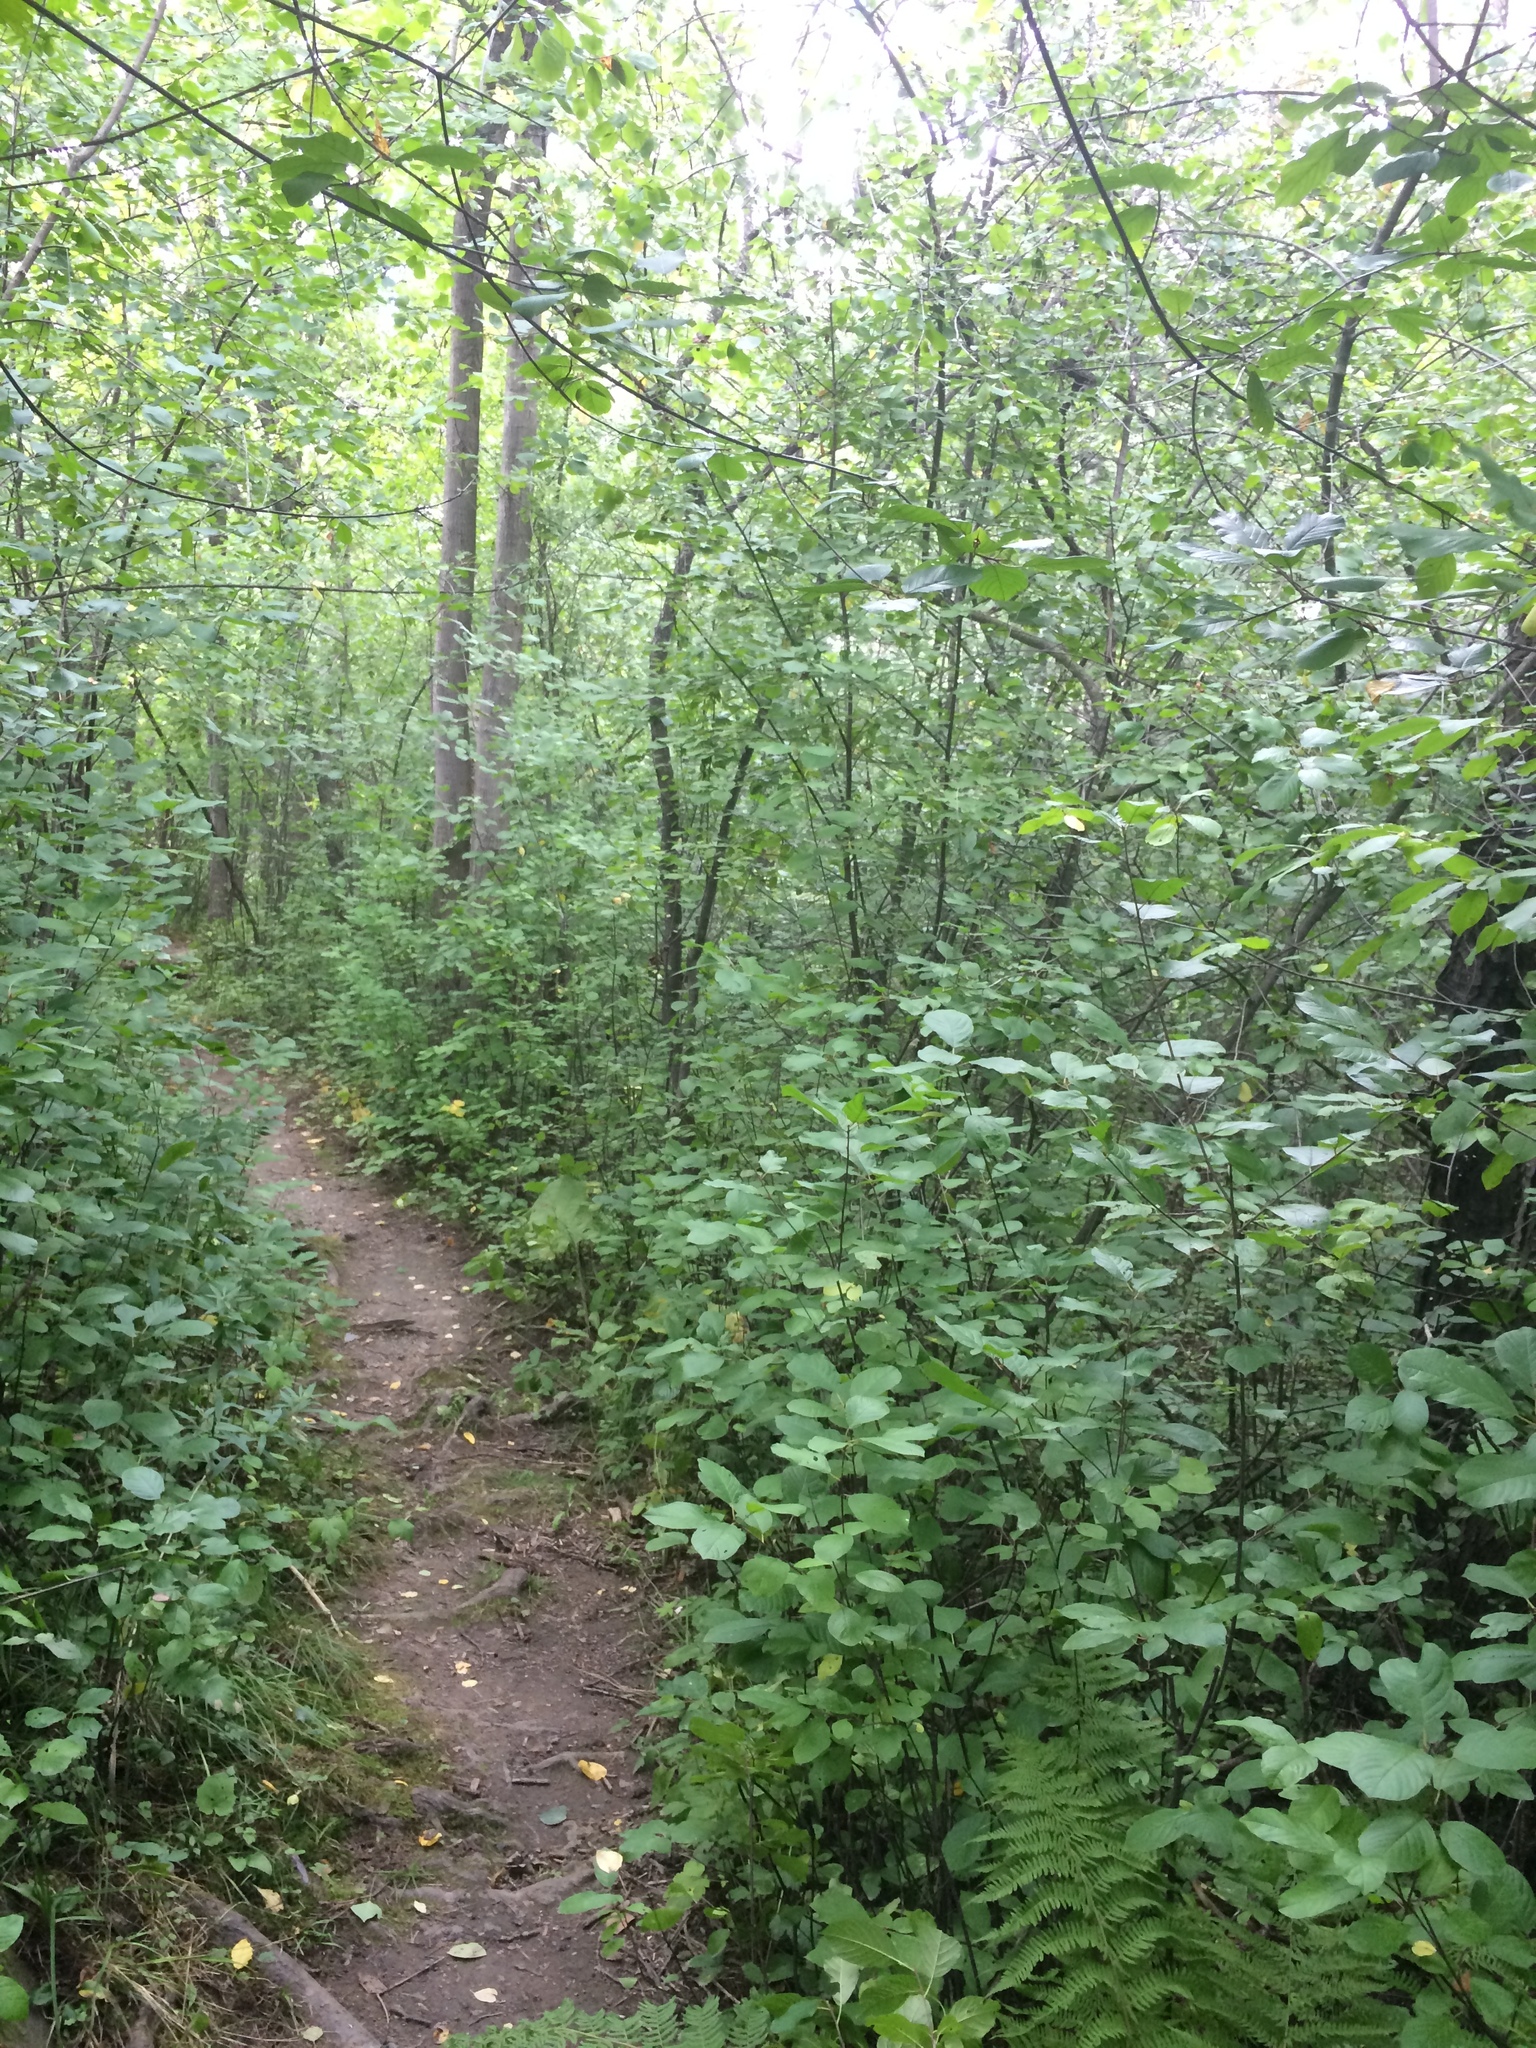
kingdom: Plantae
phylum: Tracheophyta
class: Magnoliopsida
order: Rosales
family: Rhamnaceae
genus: Frangula
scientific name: Frangula alnus
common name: Alder buckthorn
